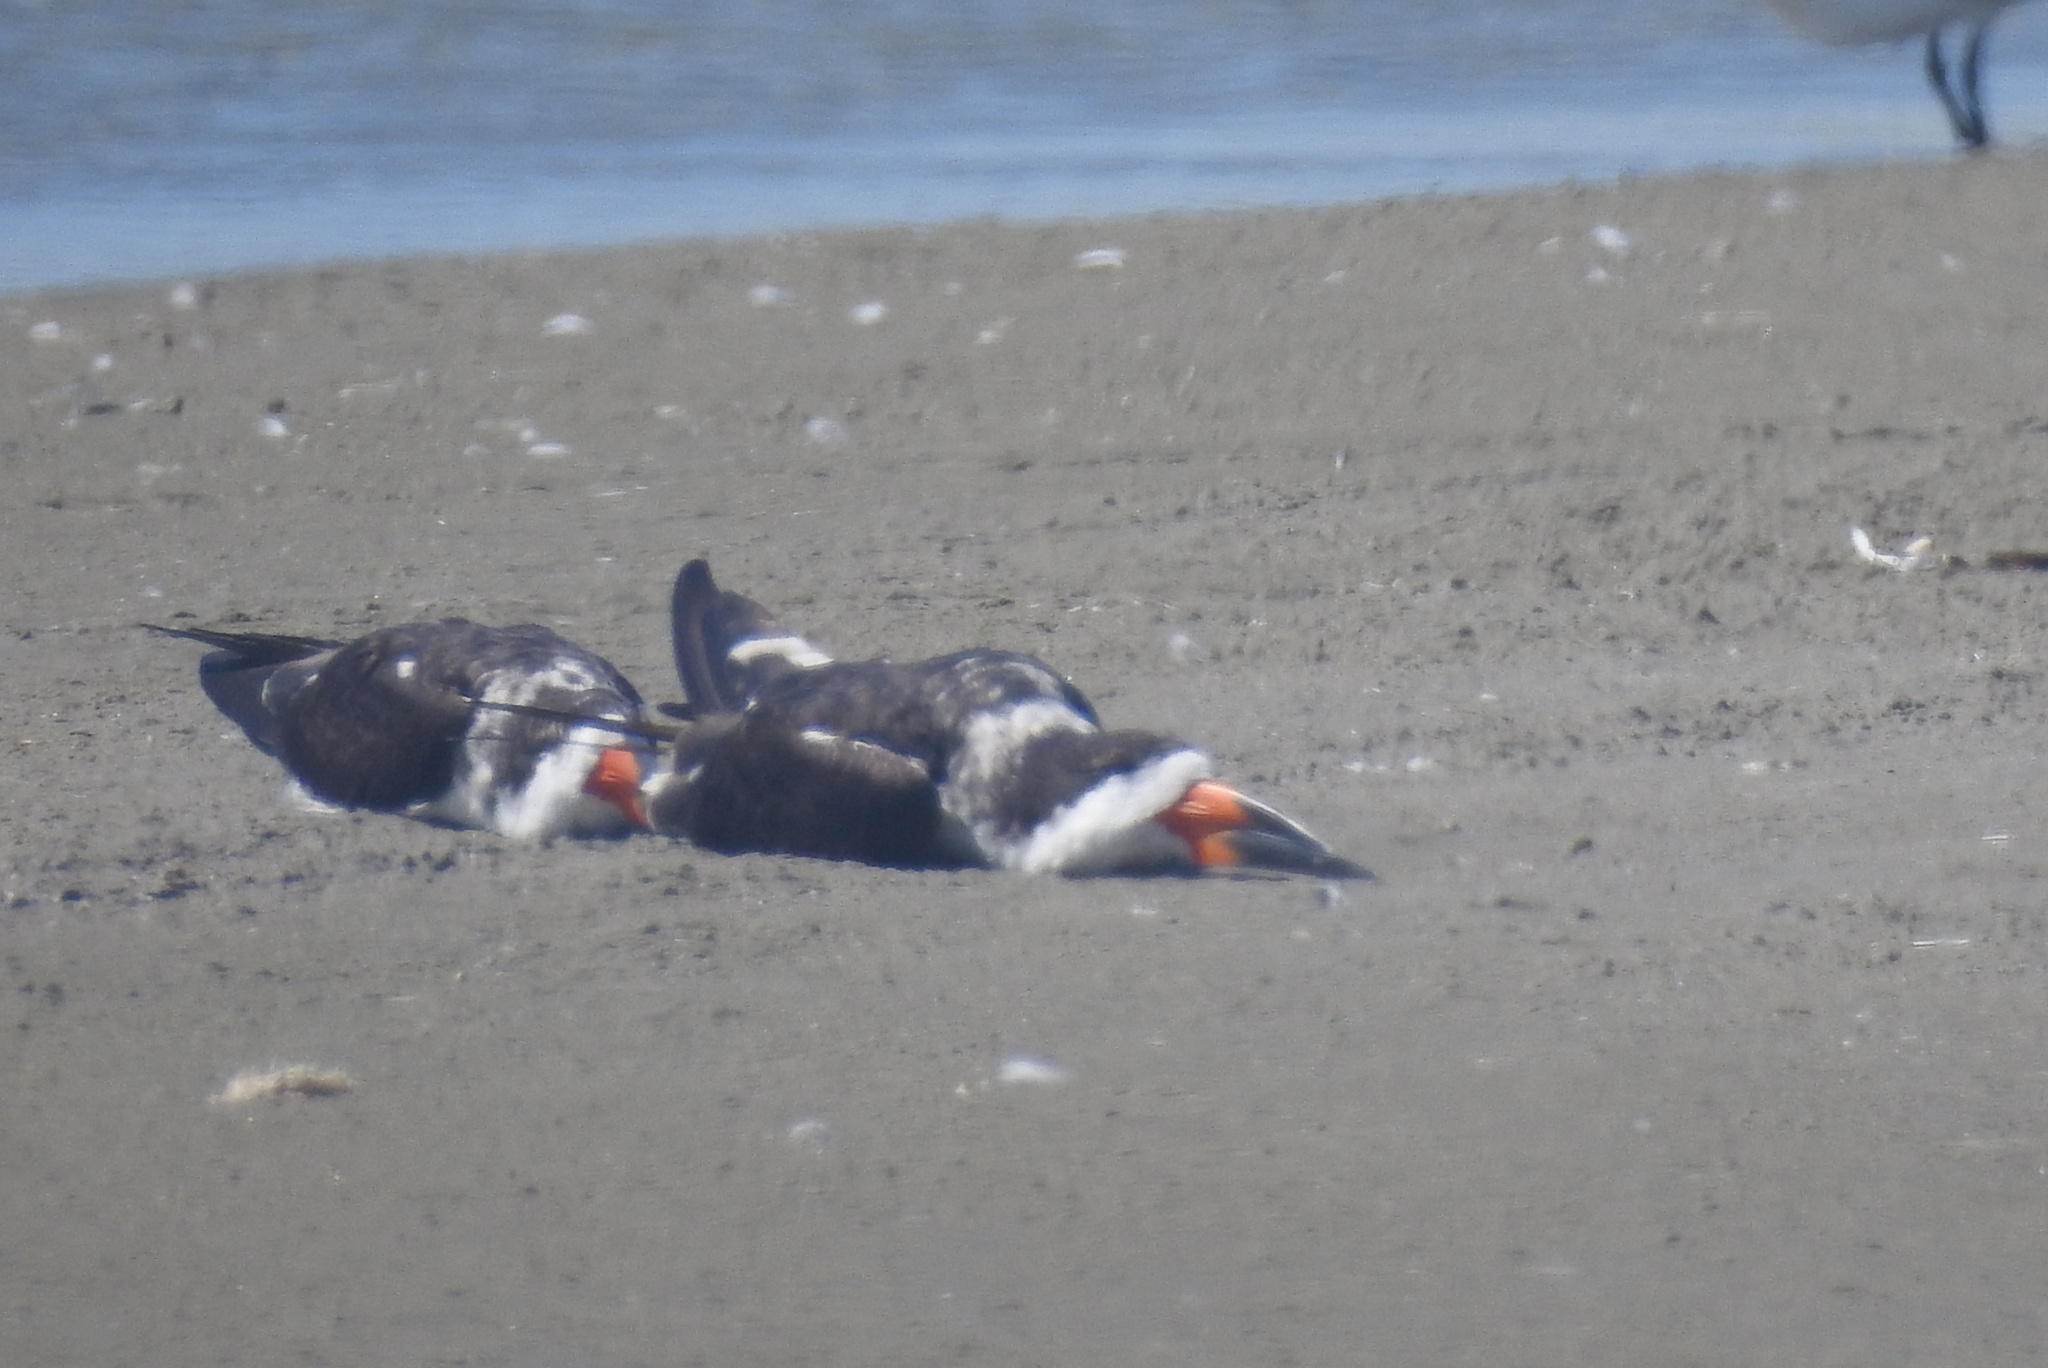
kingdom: Animalia
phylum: Chordata
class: Aves
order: Charadriiformes
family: Laridae
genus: Rynchops
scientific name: Rynchops niger
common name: Black skimmer
